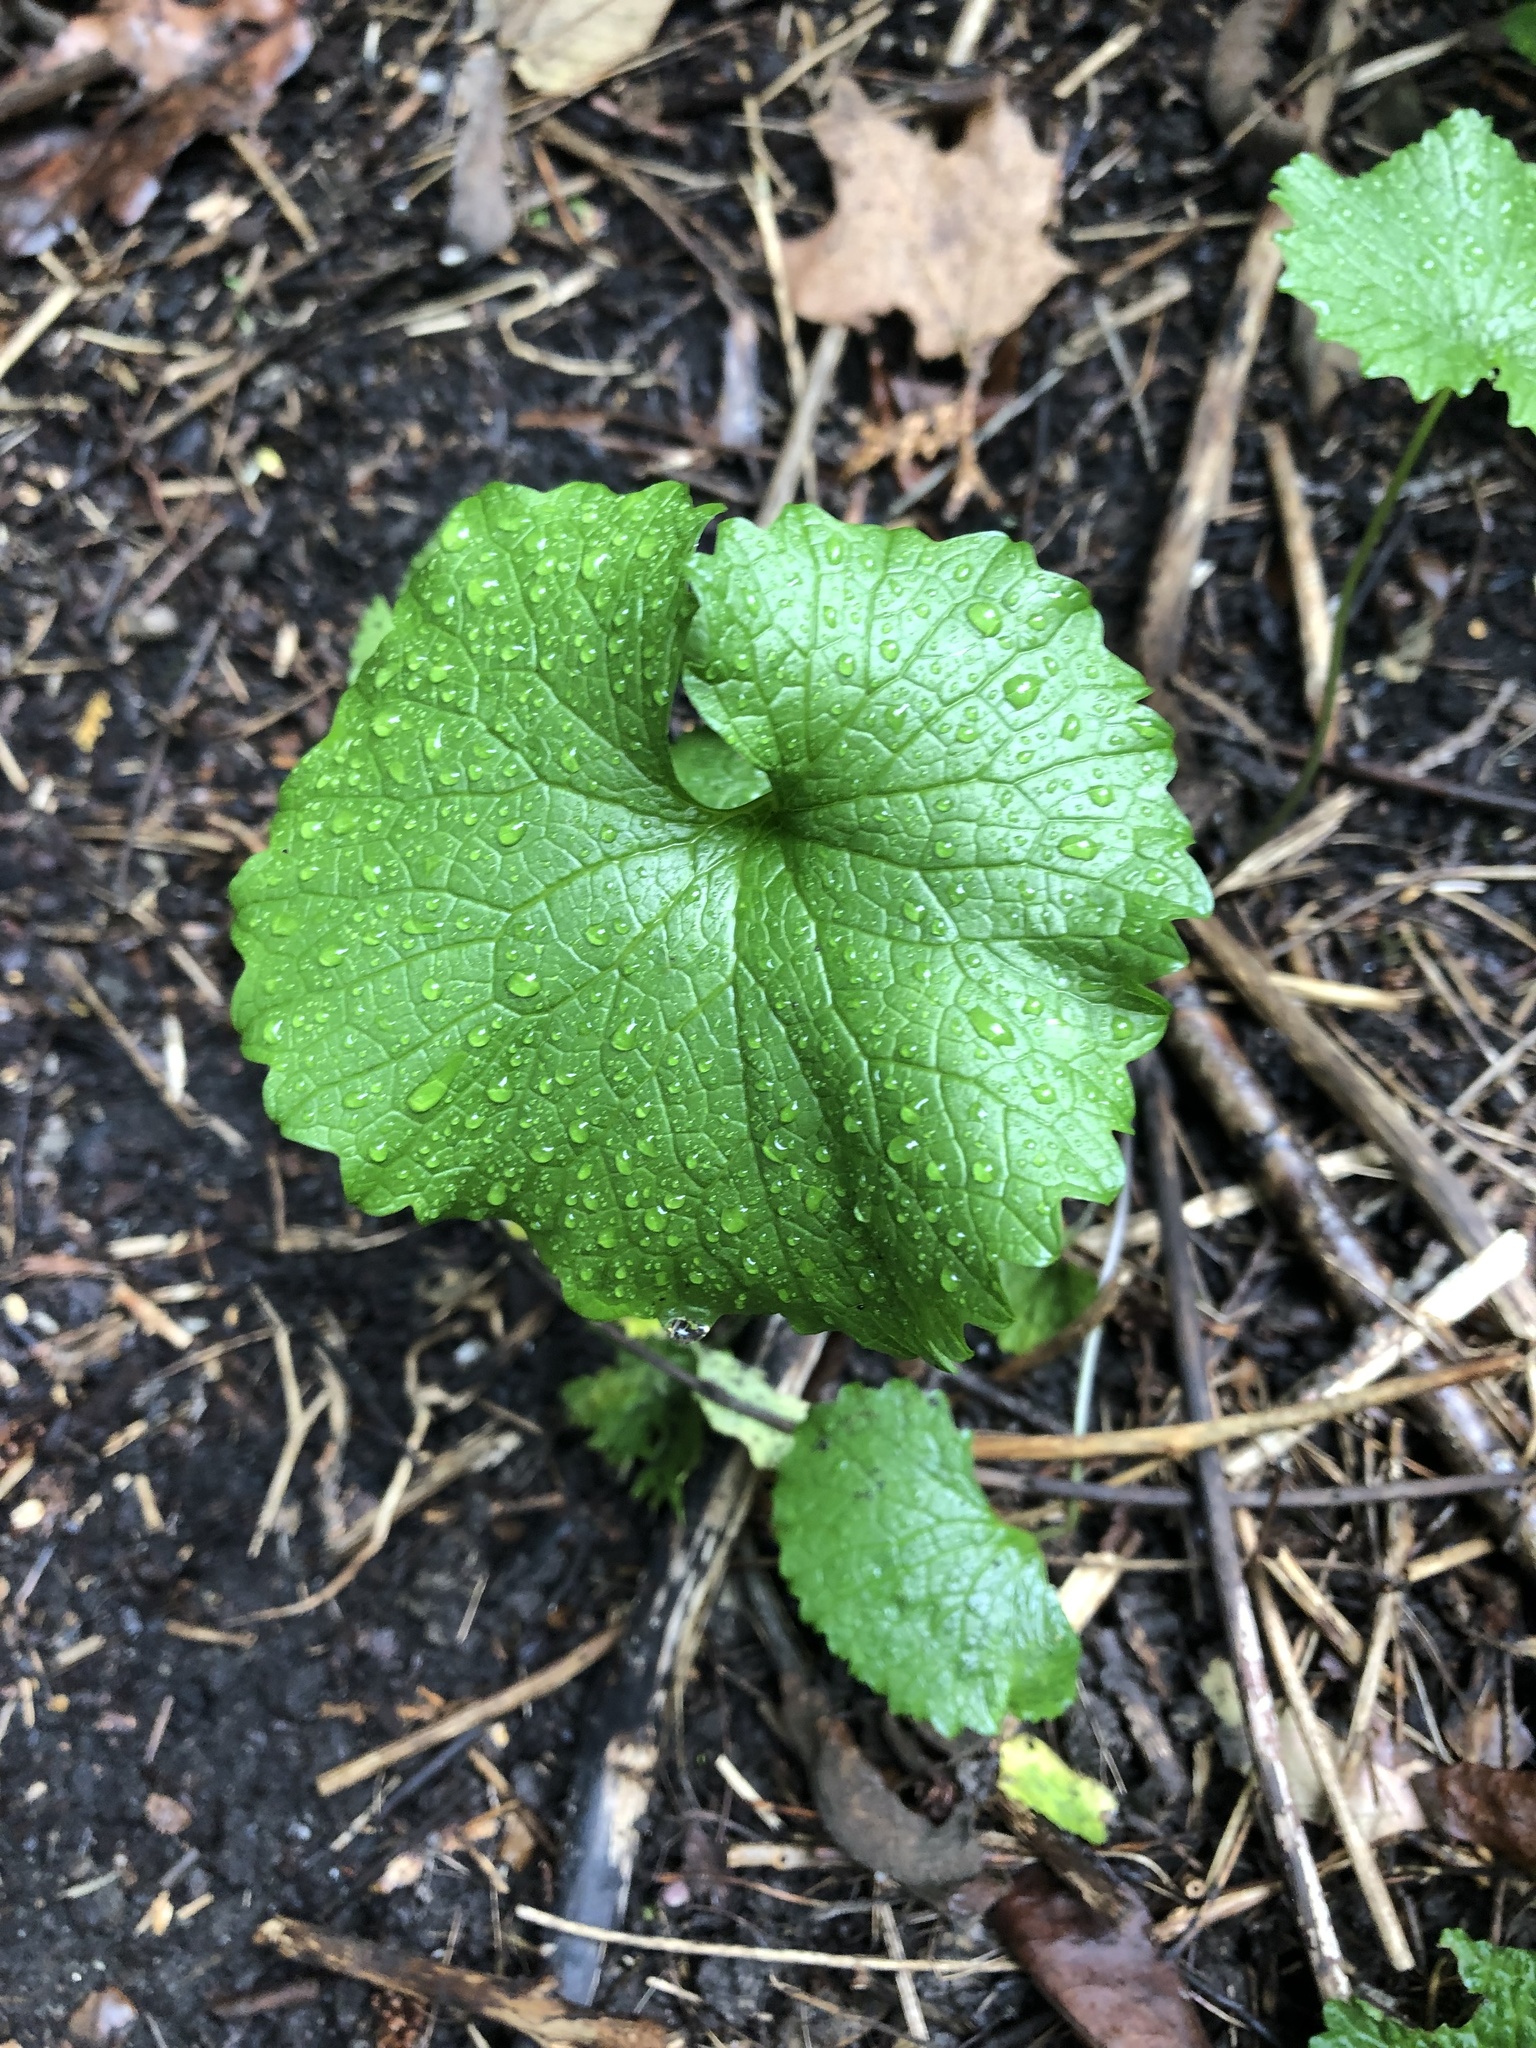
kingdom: Plantae
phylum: Tracheophyta
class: Magnoliopsida
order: Brassicales
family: Brassicaceae
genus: Alliaria
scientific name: Alliaria petiolata
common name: Garlic mustard
